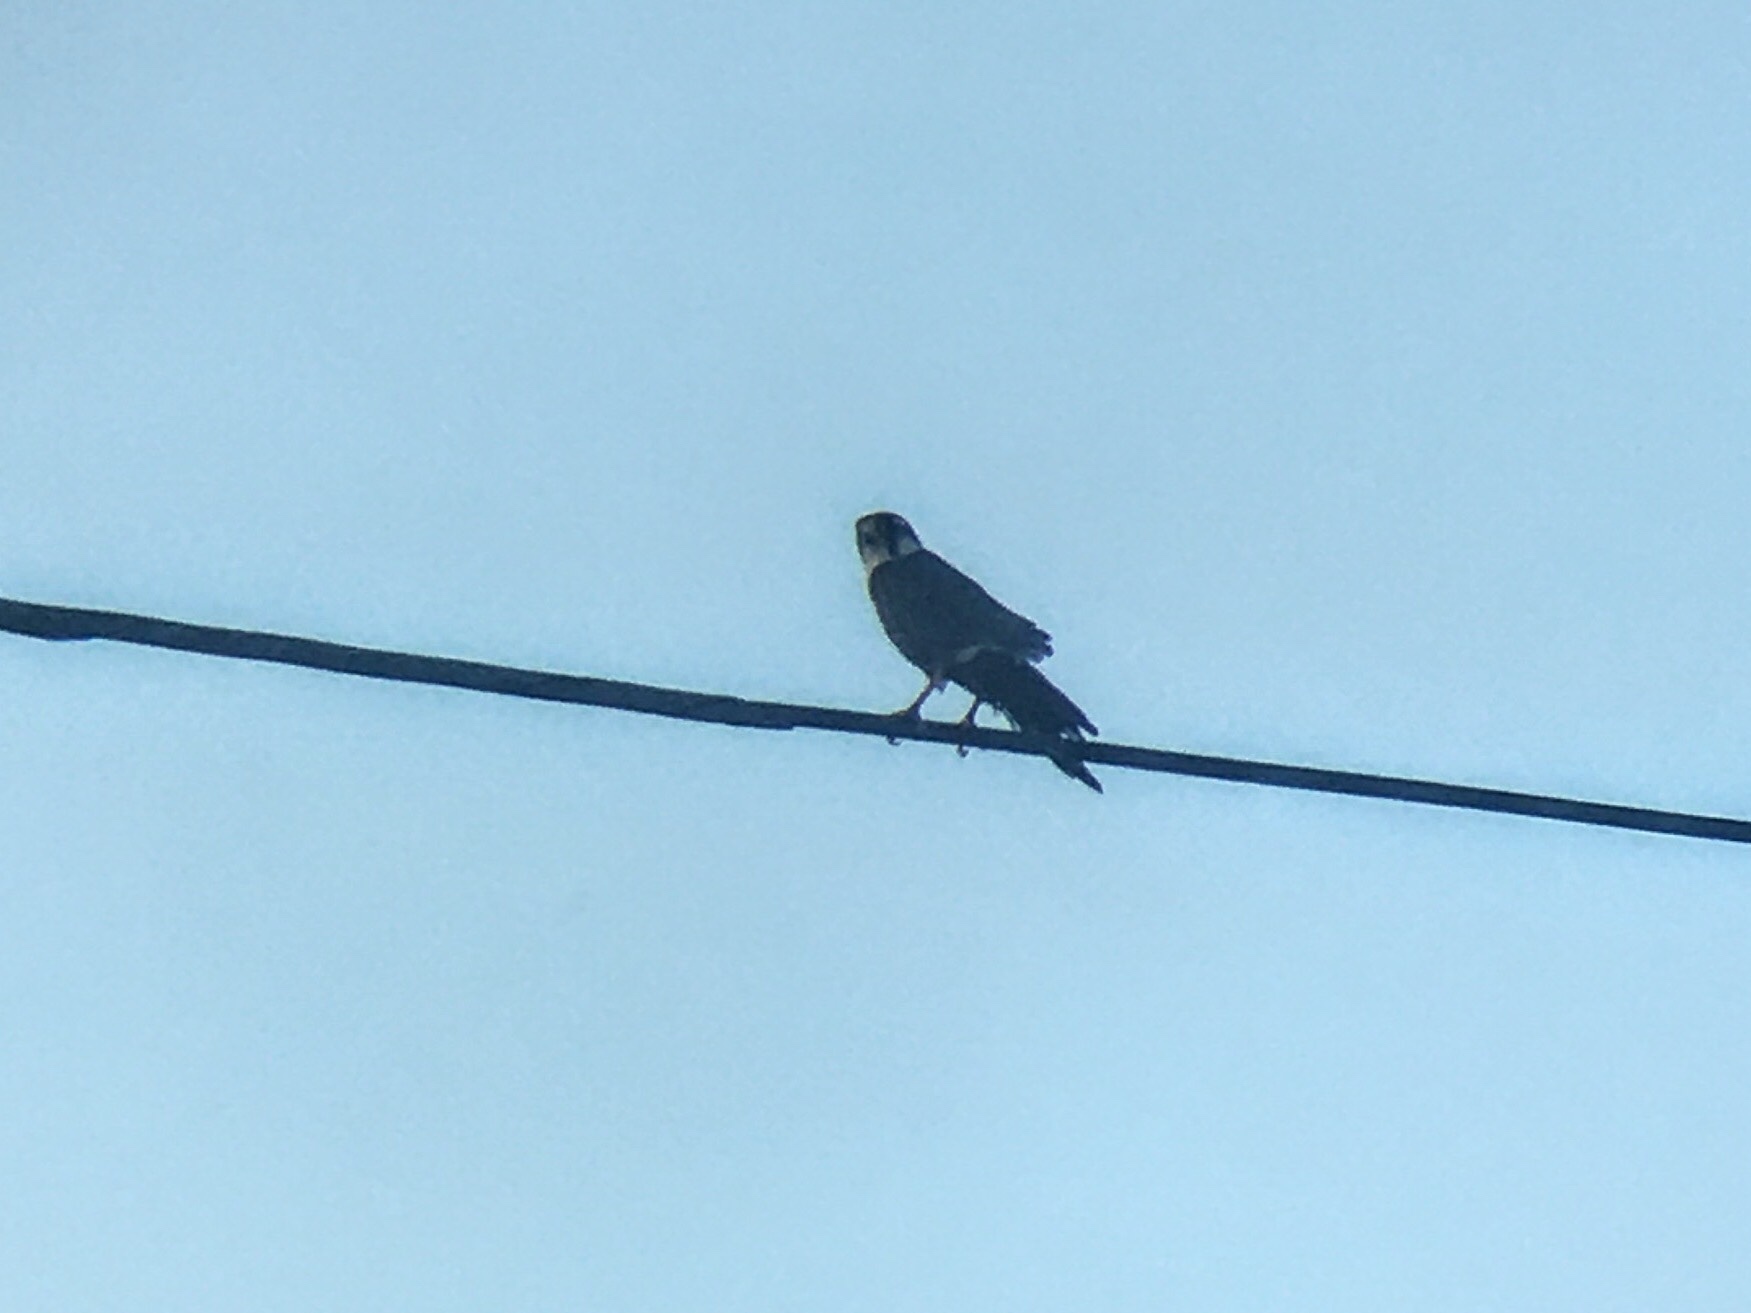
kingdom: Animalia
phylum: Chordata
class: Aves
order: Falconiformes
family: Falconidae
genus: Falco
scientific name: Falco femoralis
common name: Aplomado falcon
